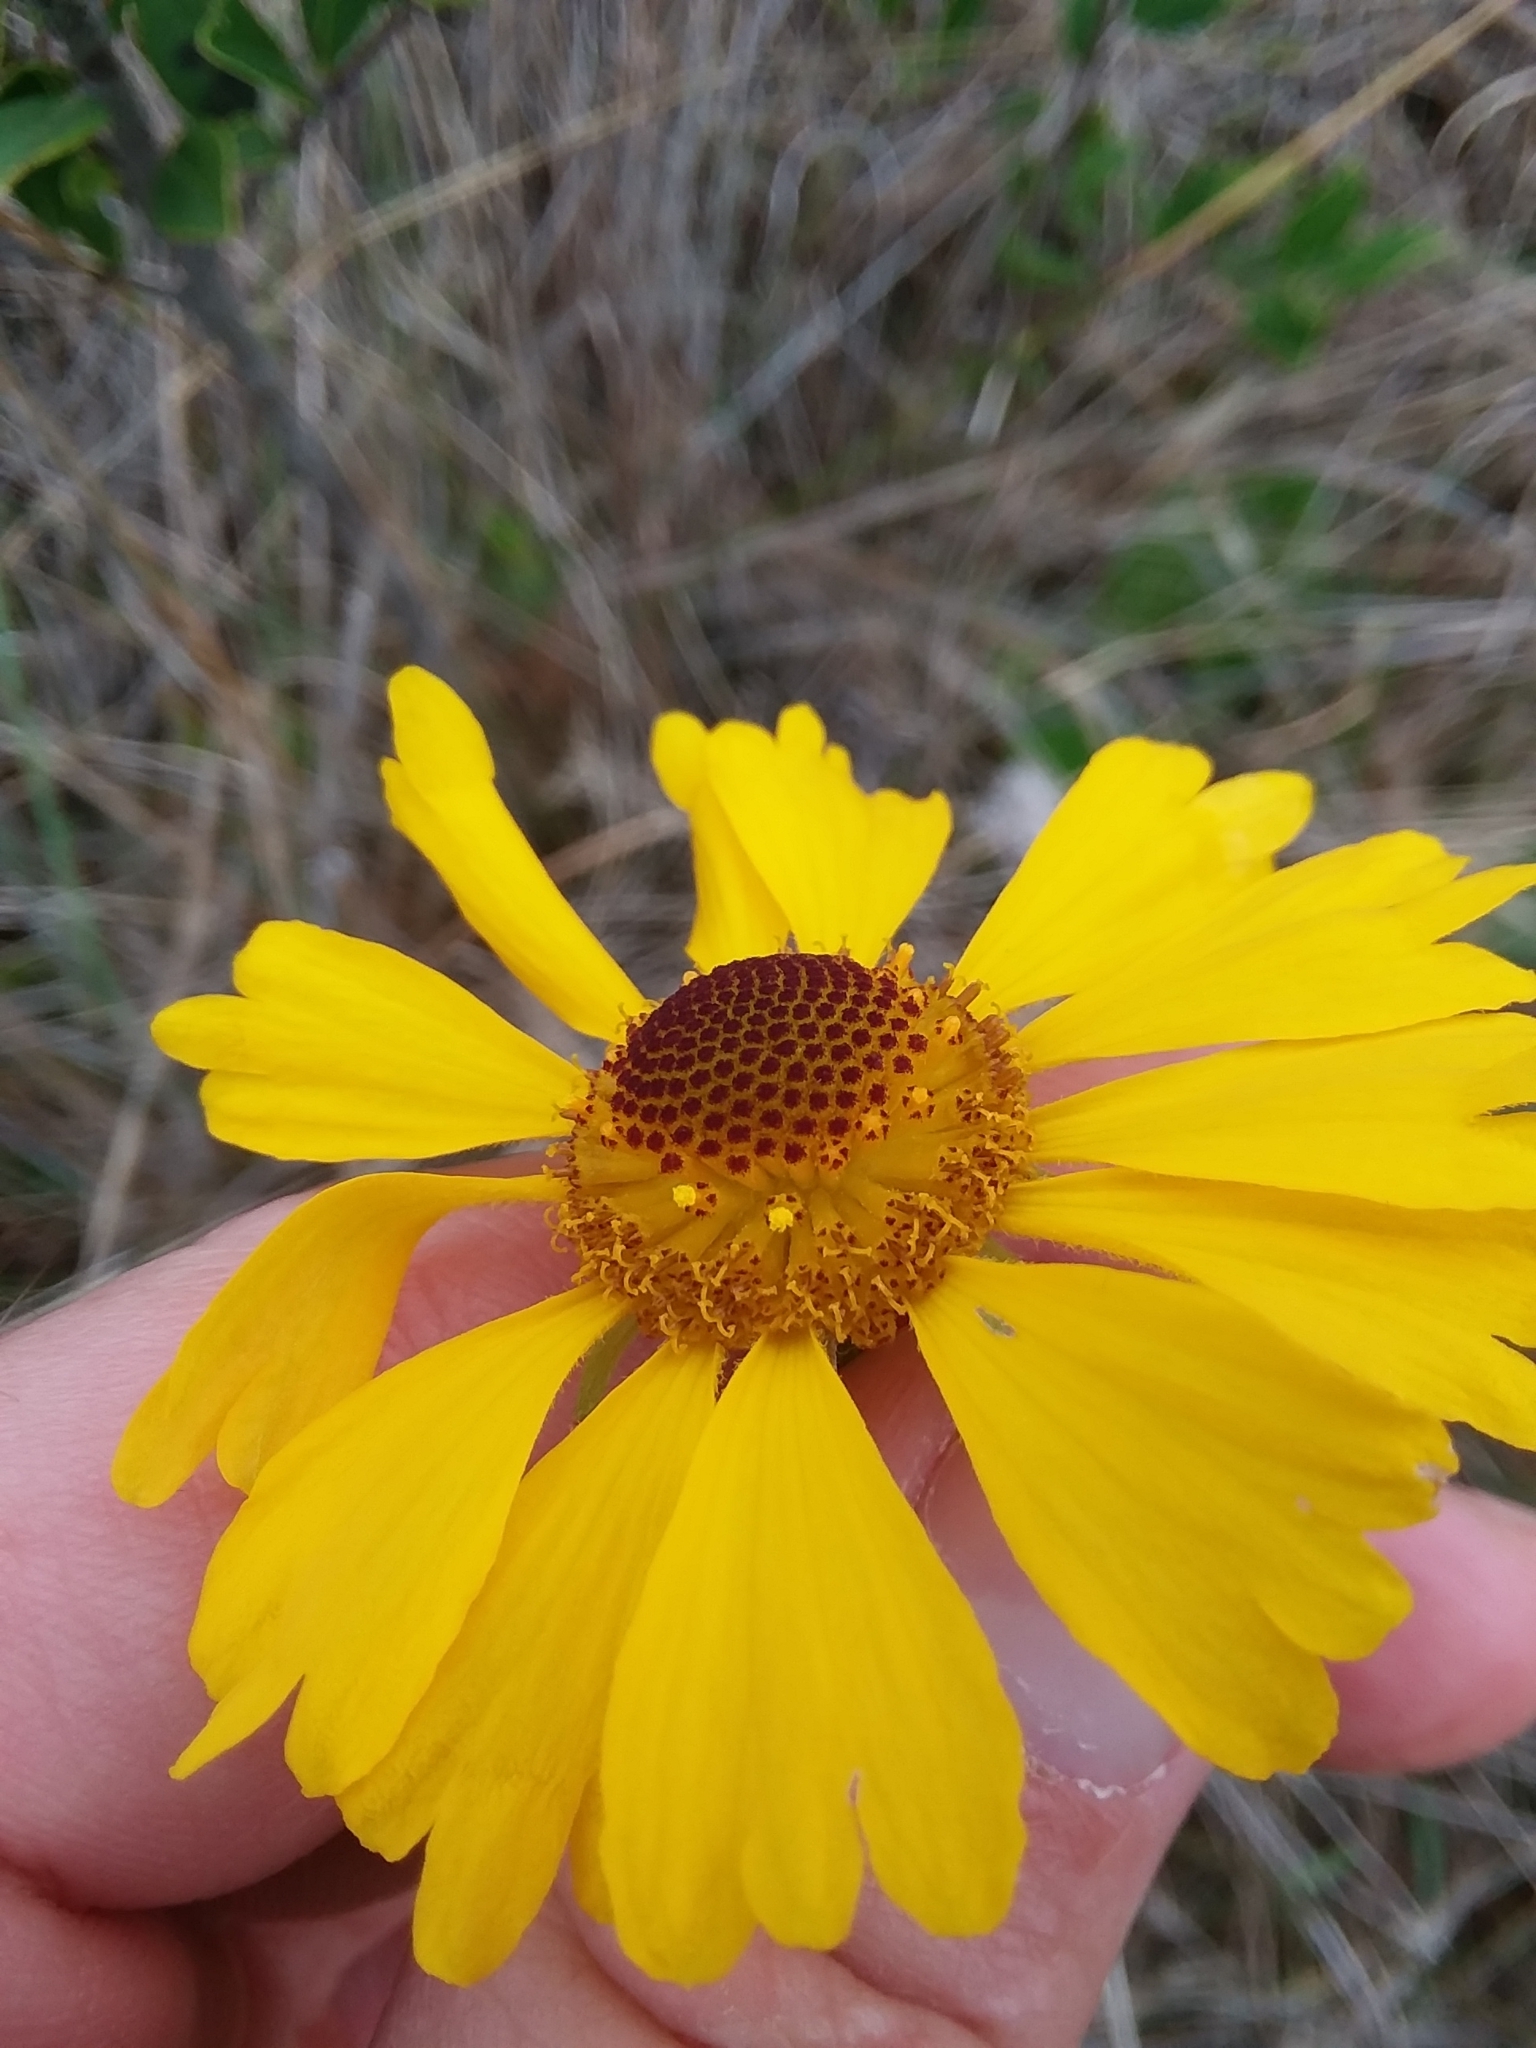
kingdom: Plantae
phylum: Tracheophyta
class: Magnoliopsida
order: Asterales
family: Asteraceae
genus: Helenium
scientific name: Helenium brevifolium
